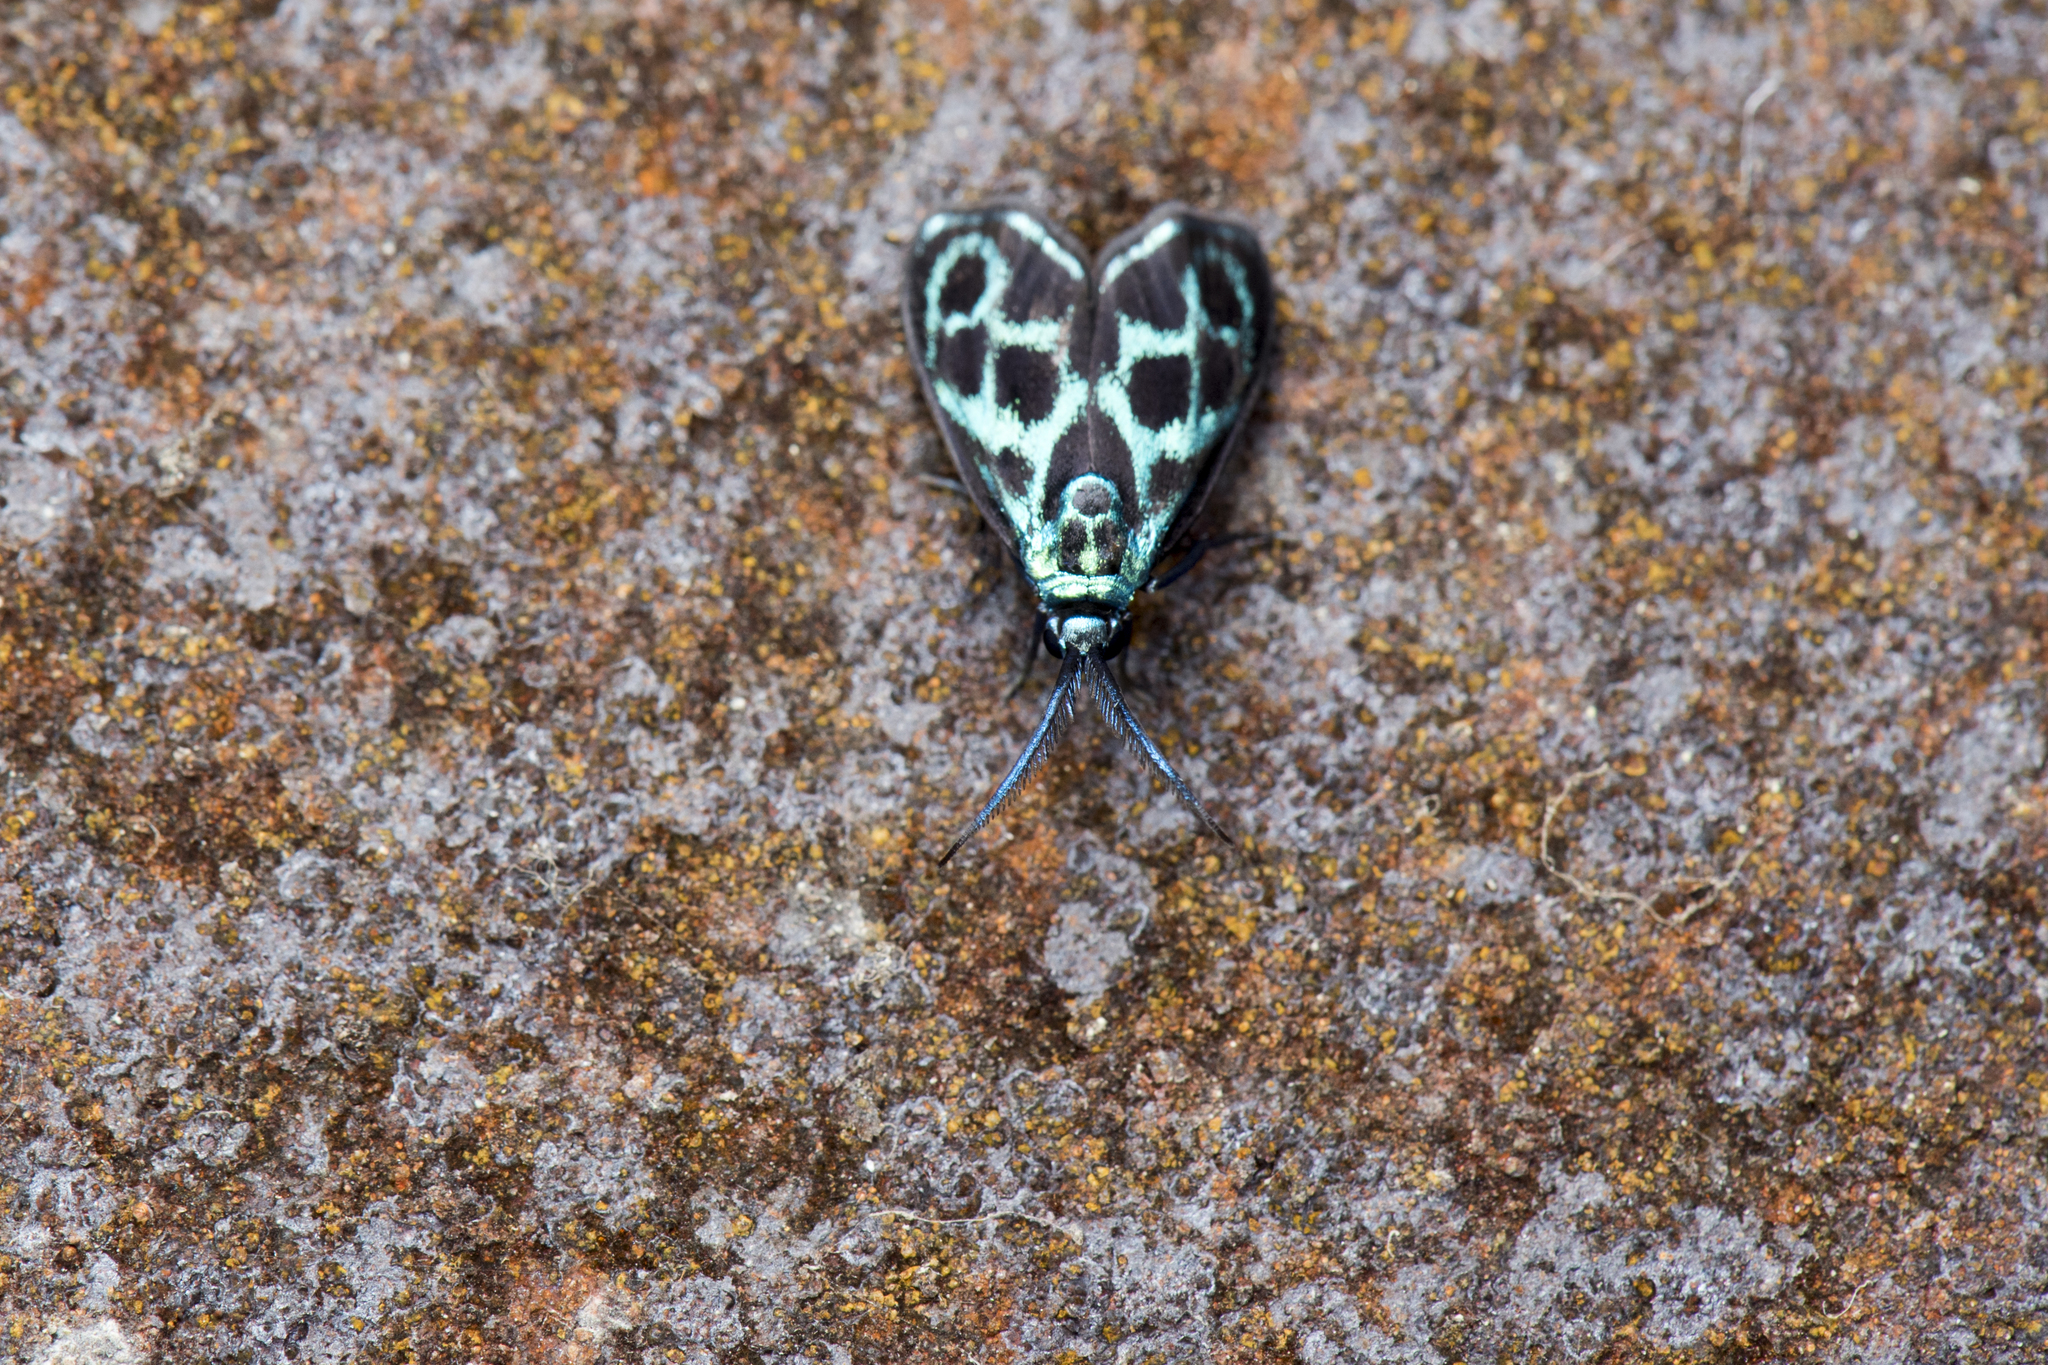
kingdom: Animalia
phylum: Arthropoda
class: Insecta
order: Lepidoptera
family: Zygaenidae
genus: Clelea
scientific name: Clelea simplicior
